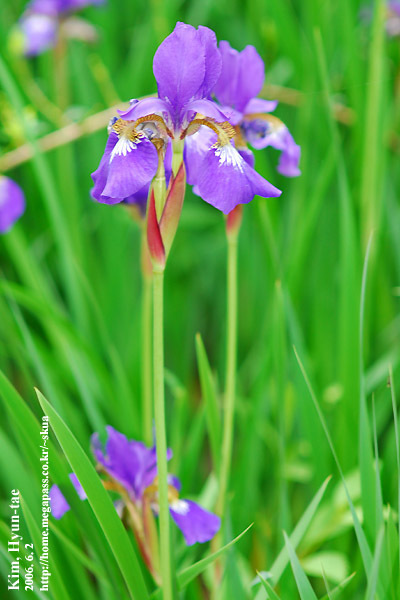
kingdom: Plantae
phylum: Tracheophyta
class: Liliopsida
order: Asparagales
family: Iridaceae
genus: Iris
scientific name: Iris sanguinea
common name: Blood iris
